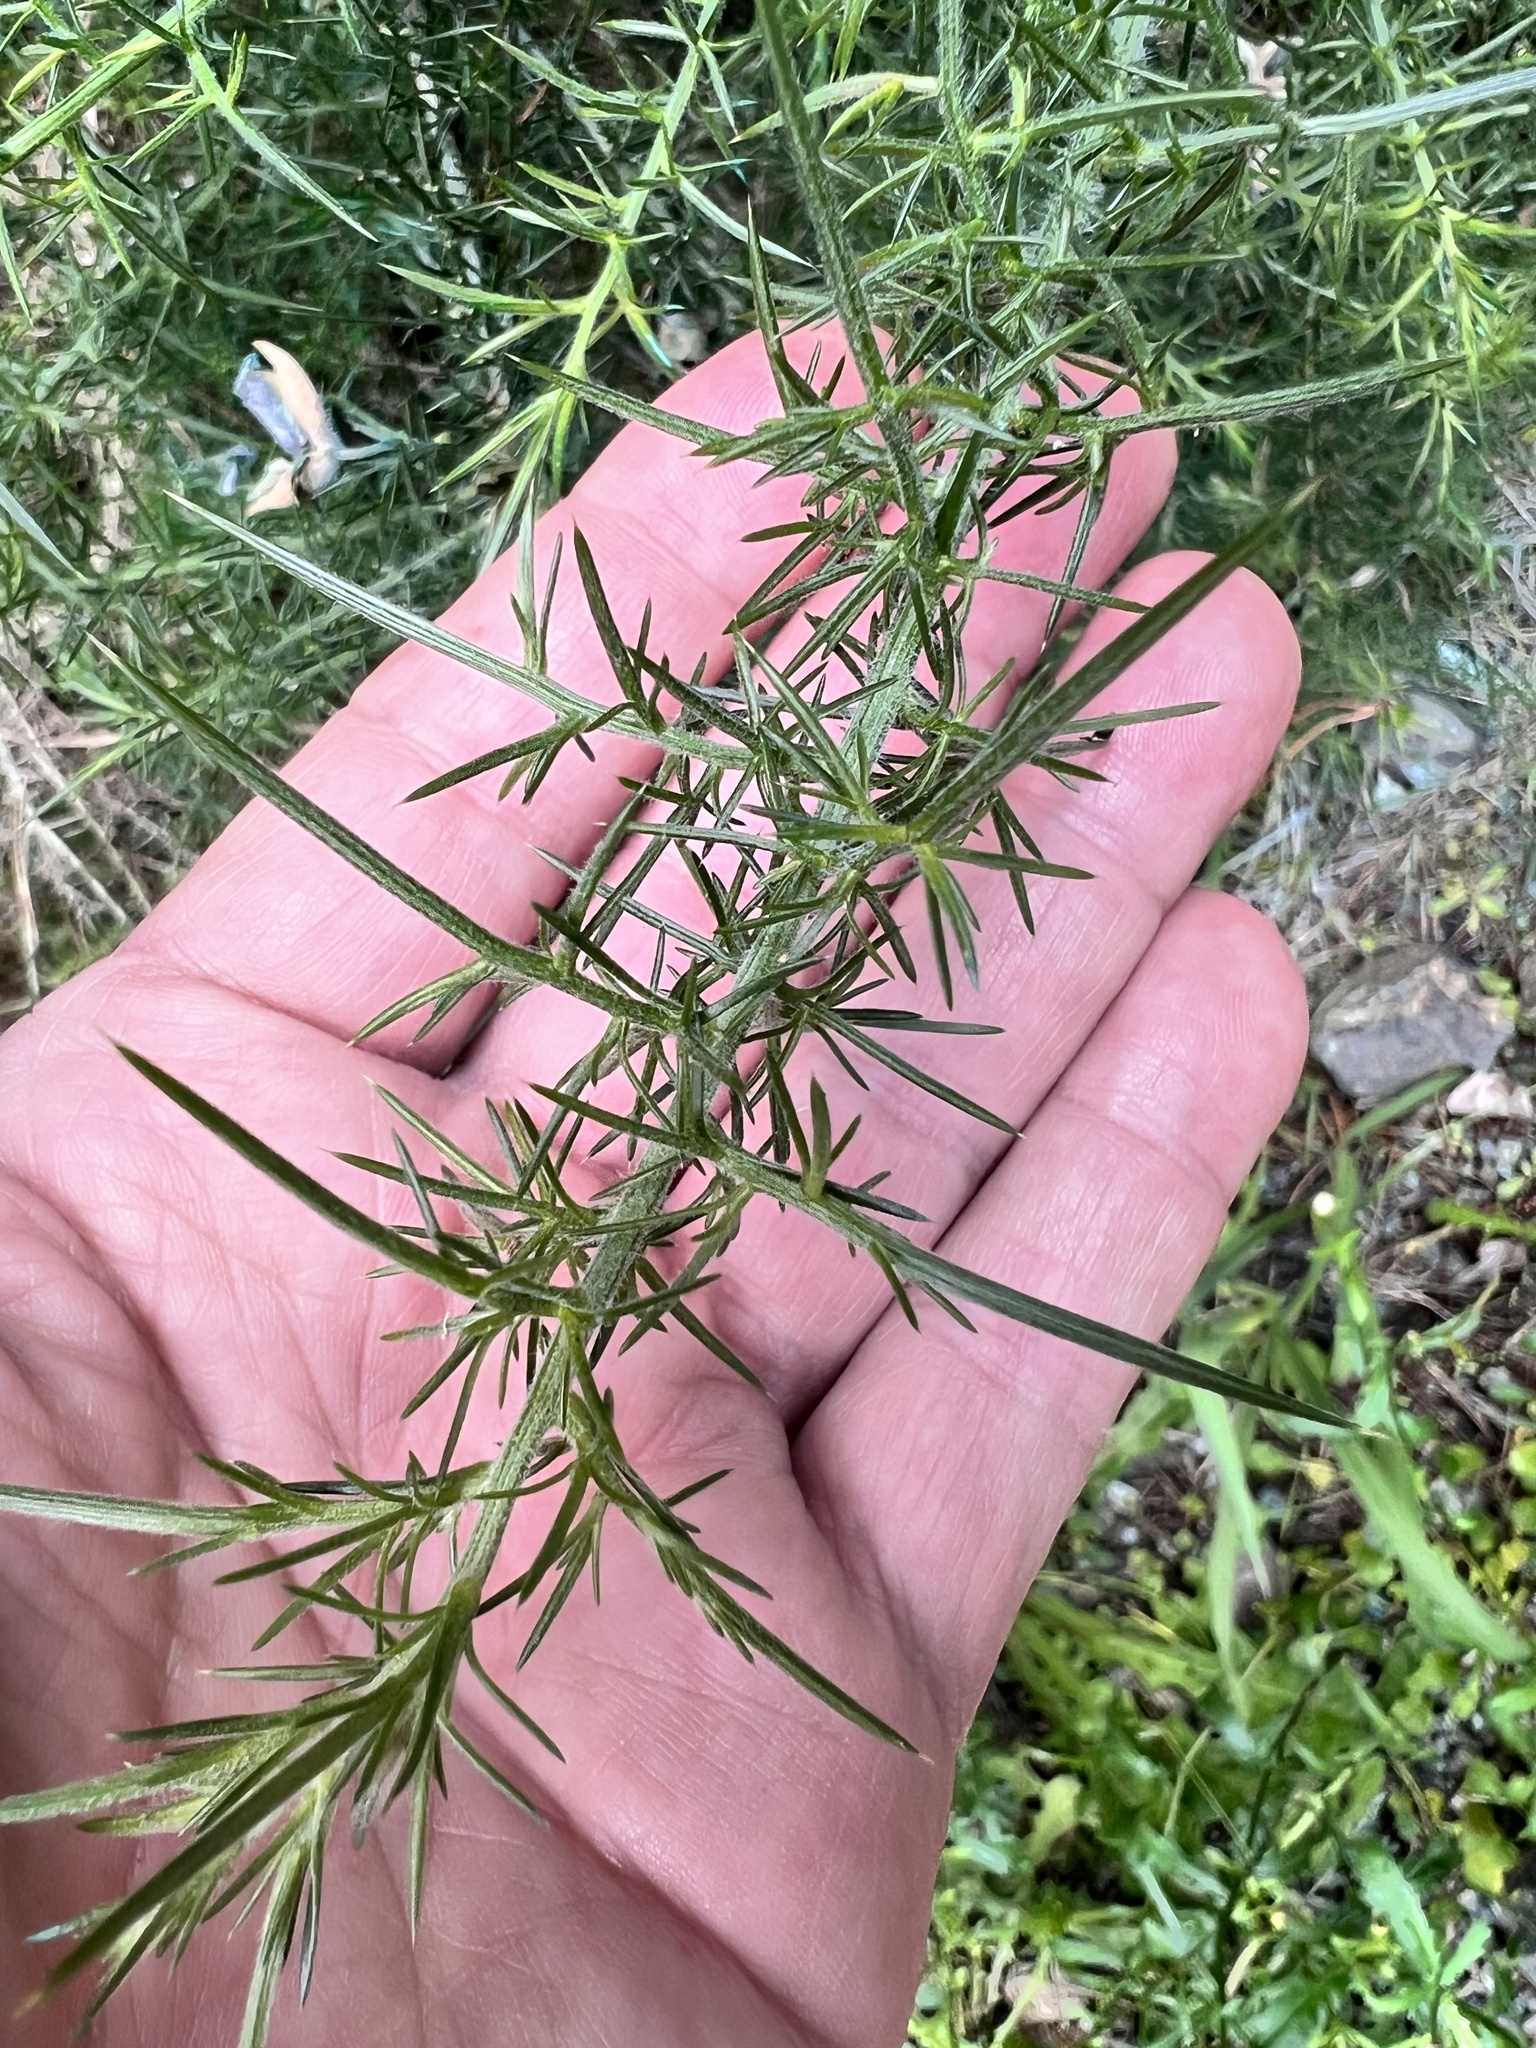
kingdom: Plantae
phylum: Tracheophyta
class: Magnoliopsida
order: Fabales
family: Fabaceae
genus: Ulex
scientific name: Ulex europaeus
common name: Common gorse
